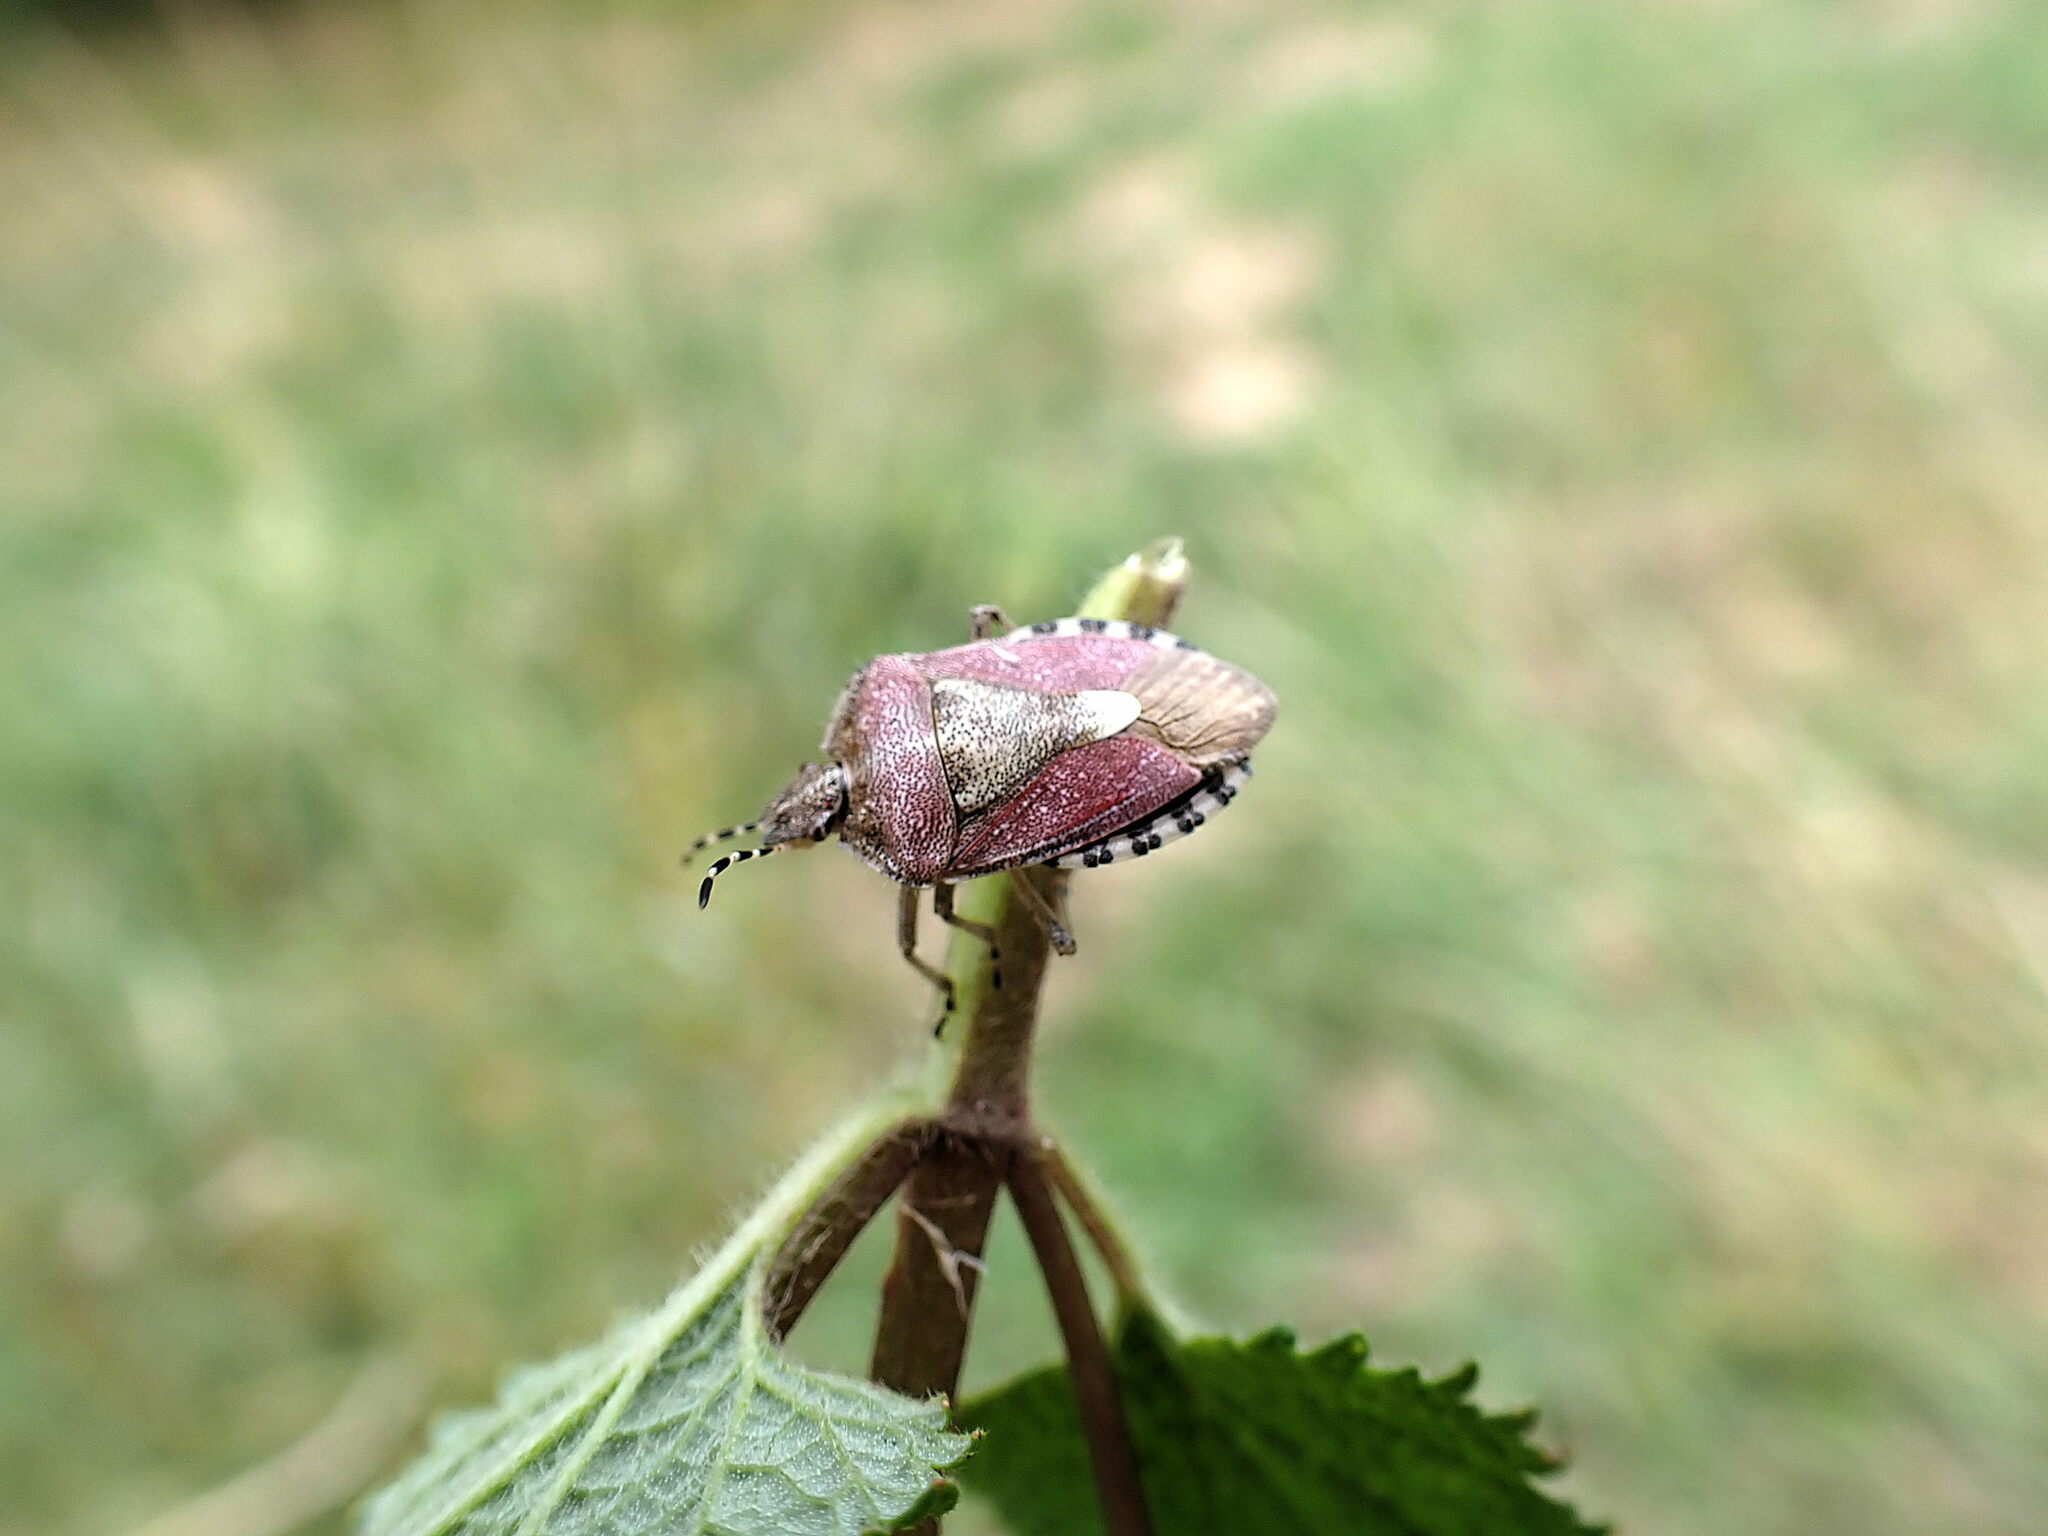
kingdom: Animalia
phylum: Arthropoda
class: Insecta
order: Hemiptera
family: Pentatomidae
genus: Dolycoris
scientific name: Dolycoris baccarum
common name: Sloe bug
